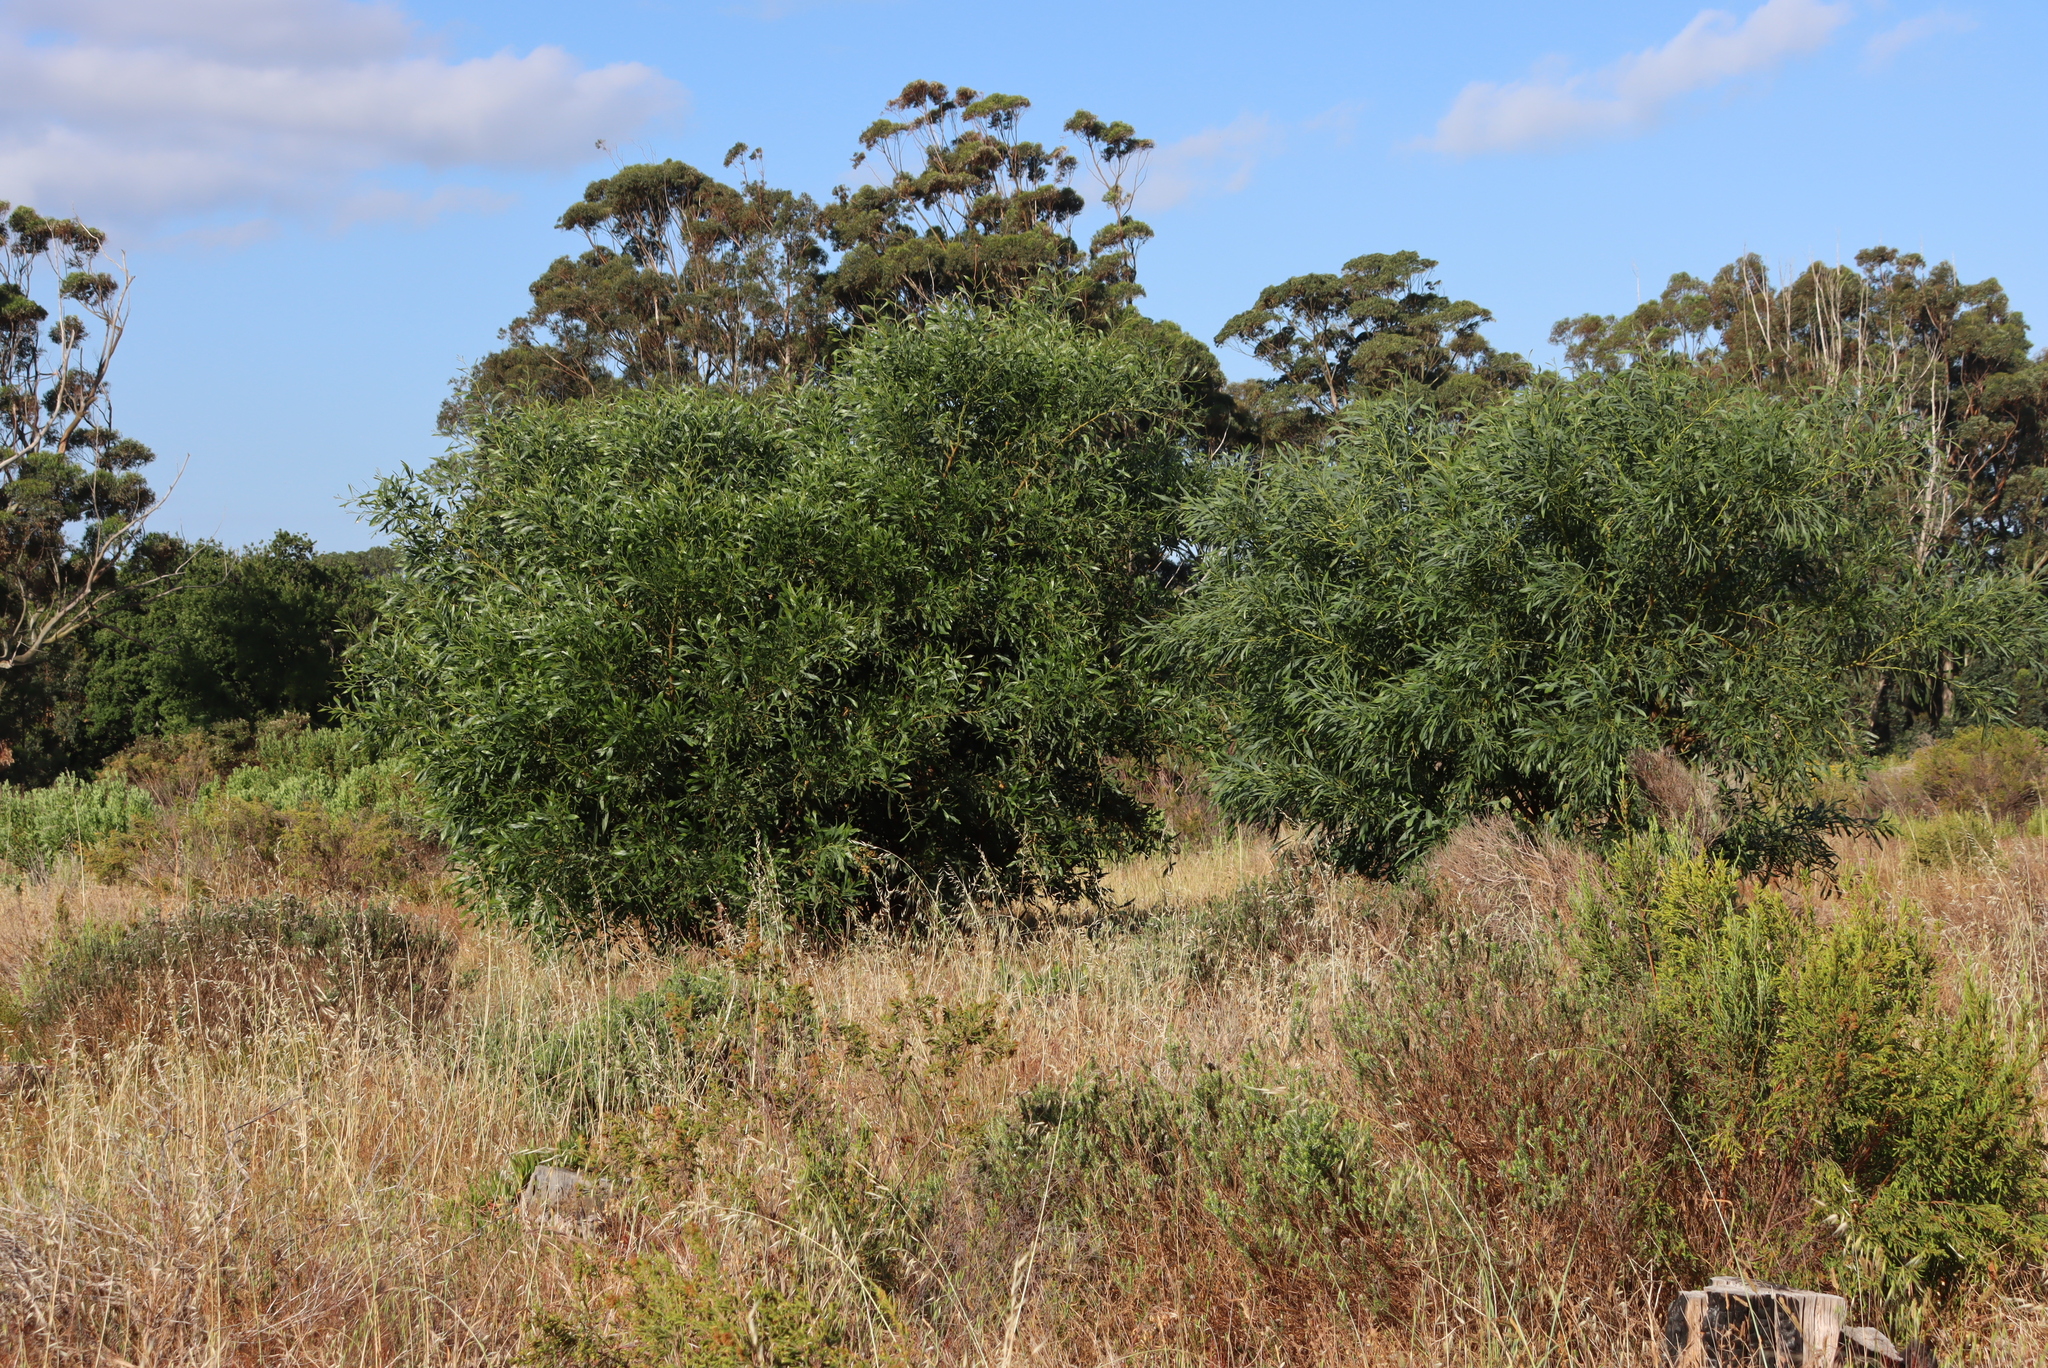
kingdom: Plantae
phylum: Tracheophyta
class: Magnoliopsida
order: Fabales
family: Fabaceae
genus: Acacia
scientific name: Acacia saligna
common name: Orange wattle
